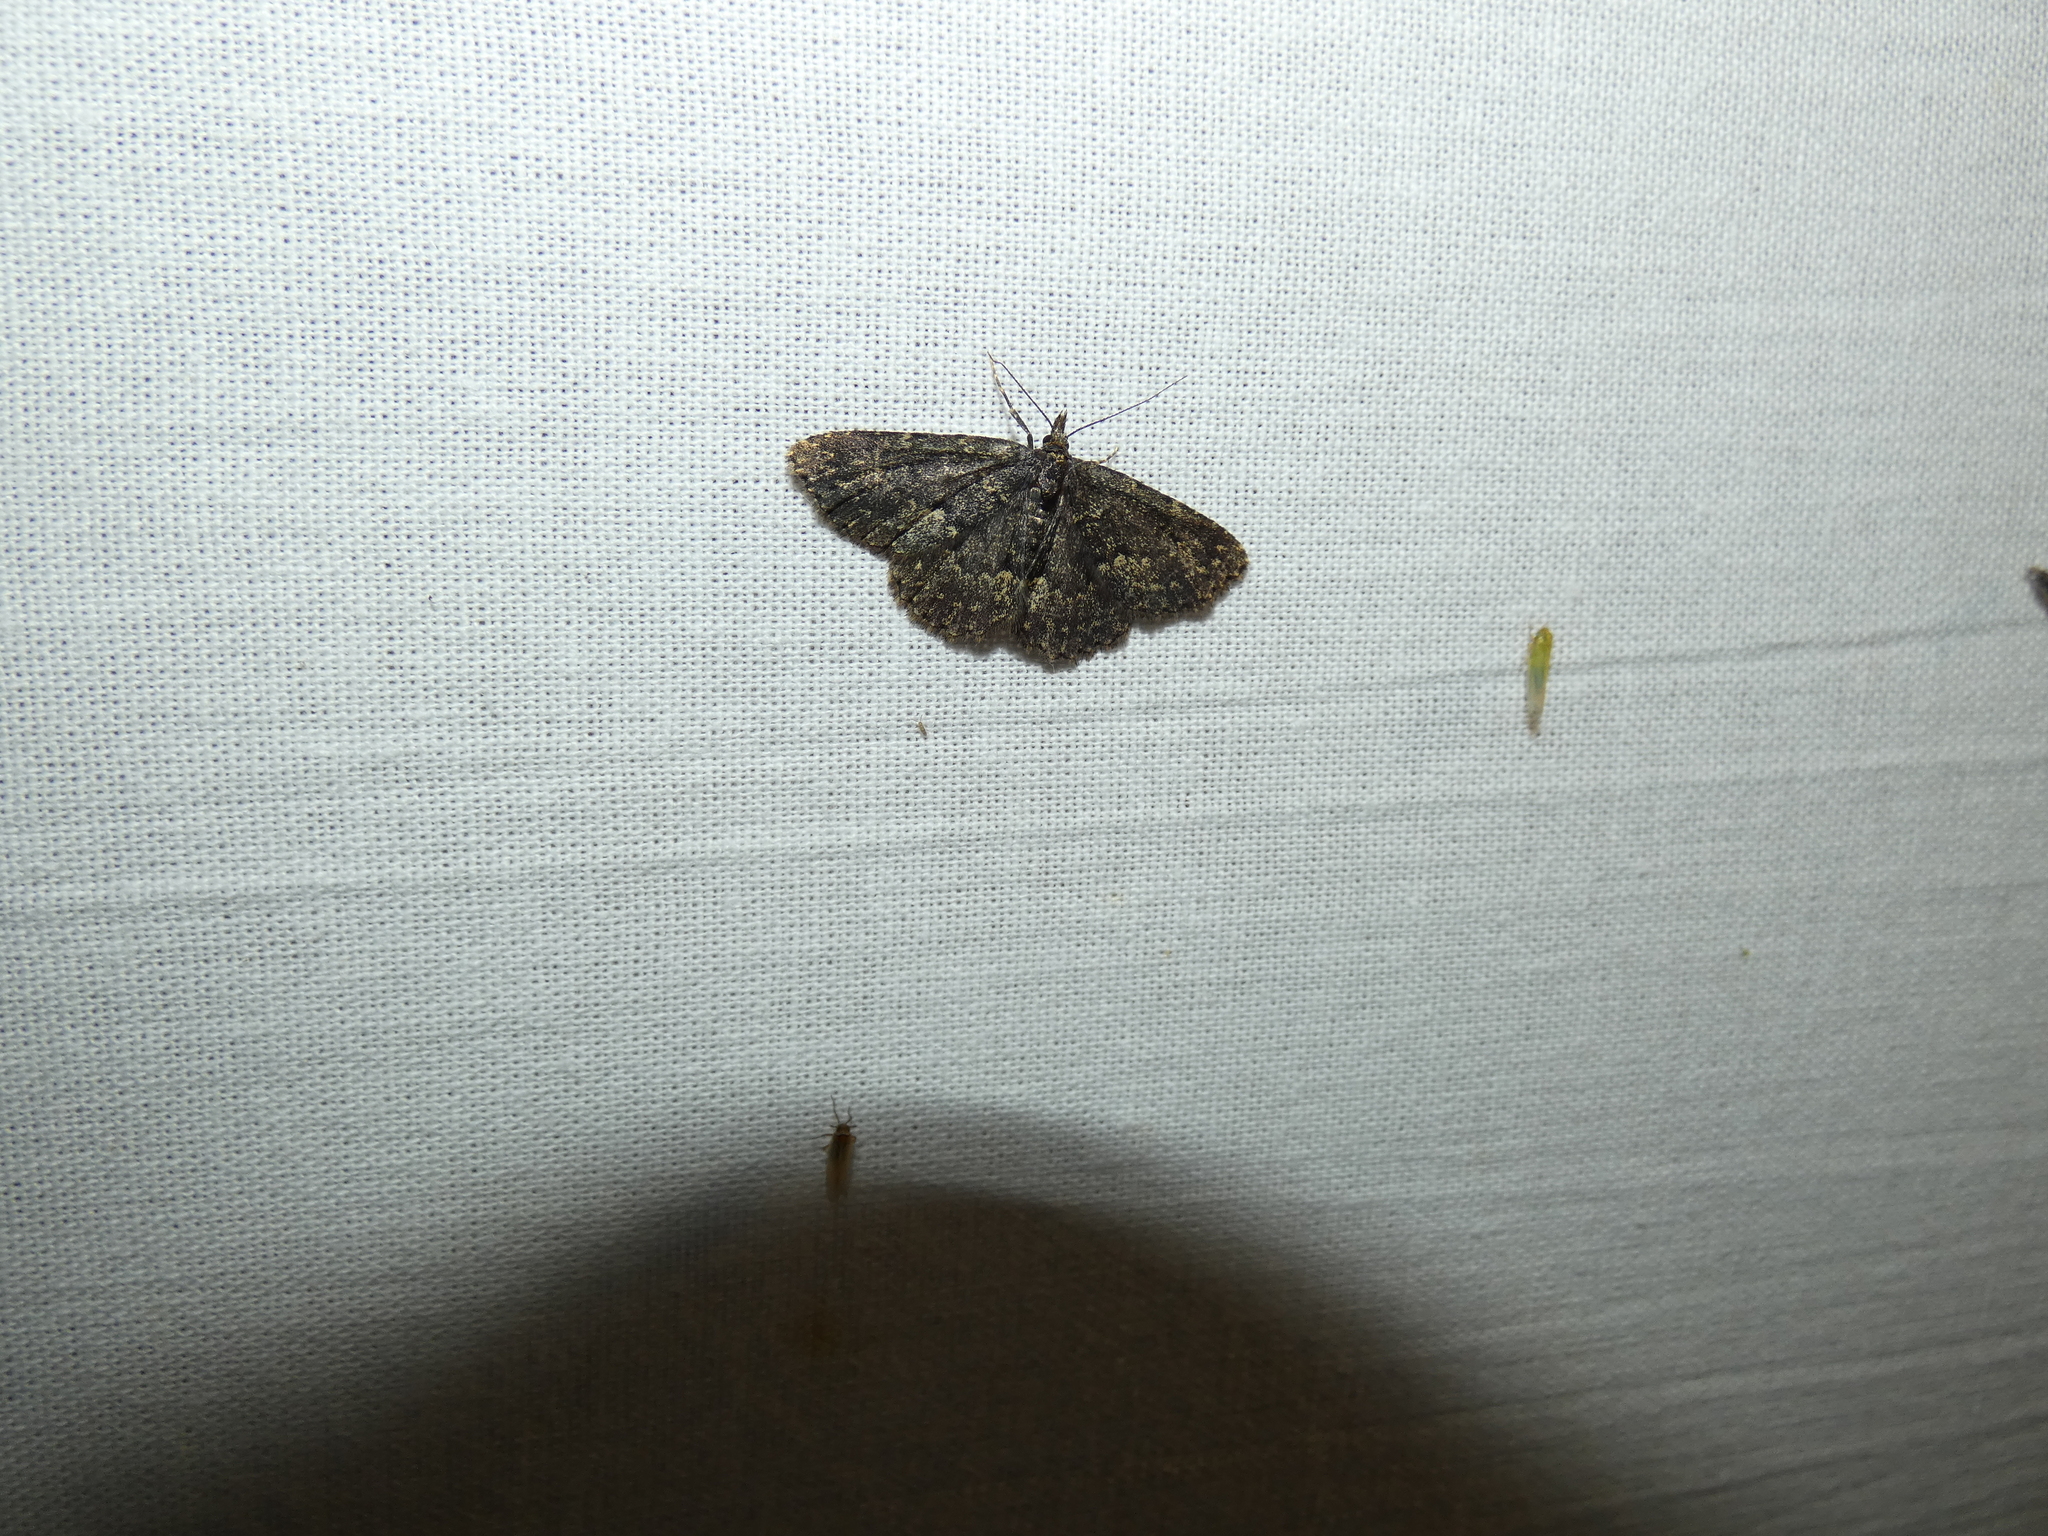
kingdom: Animalia
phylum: Arthropoda
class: Insecta
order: Lepidoptera
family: Erebidae
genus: Parascotia
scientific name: Parascotia fuliginaria
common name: Waved black
